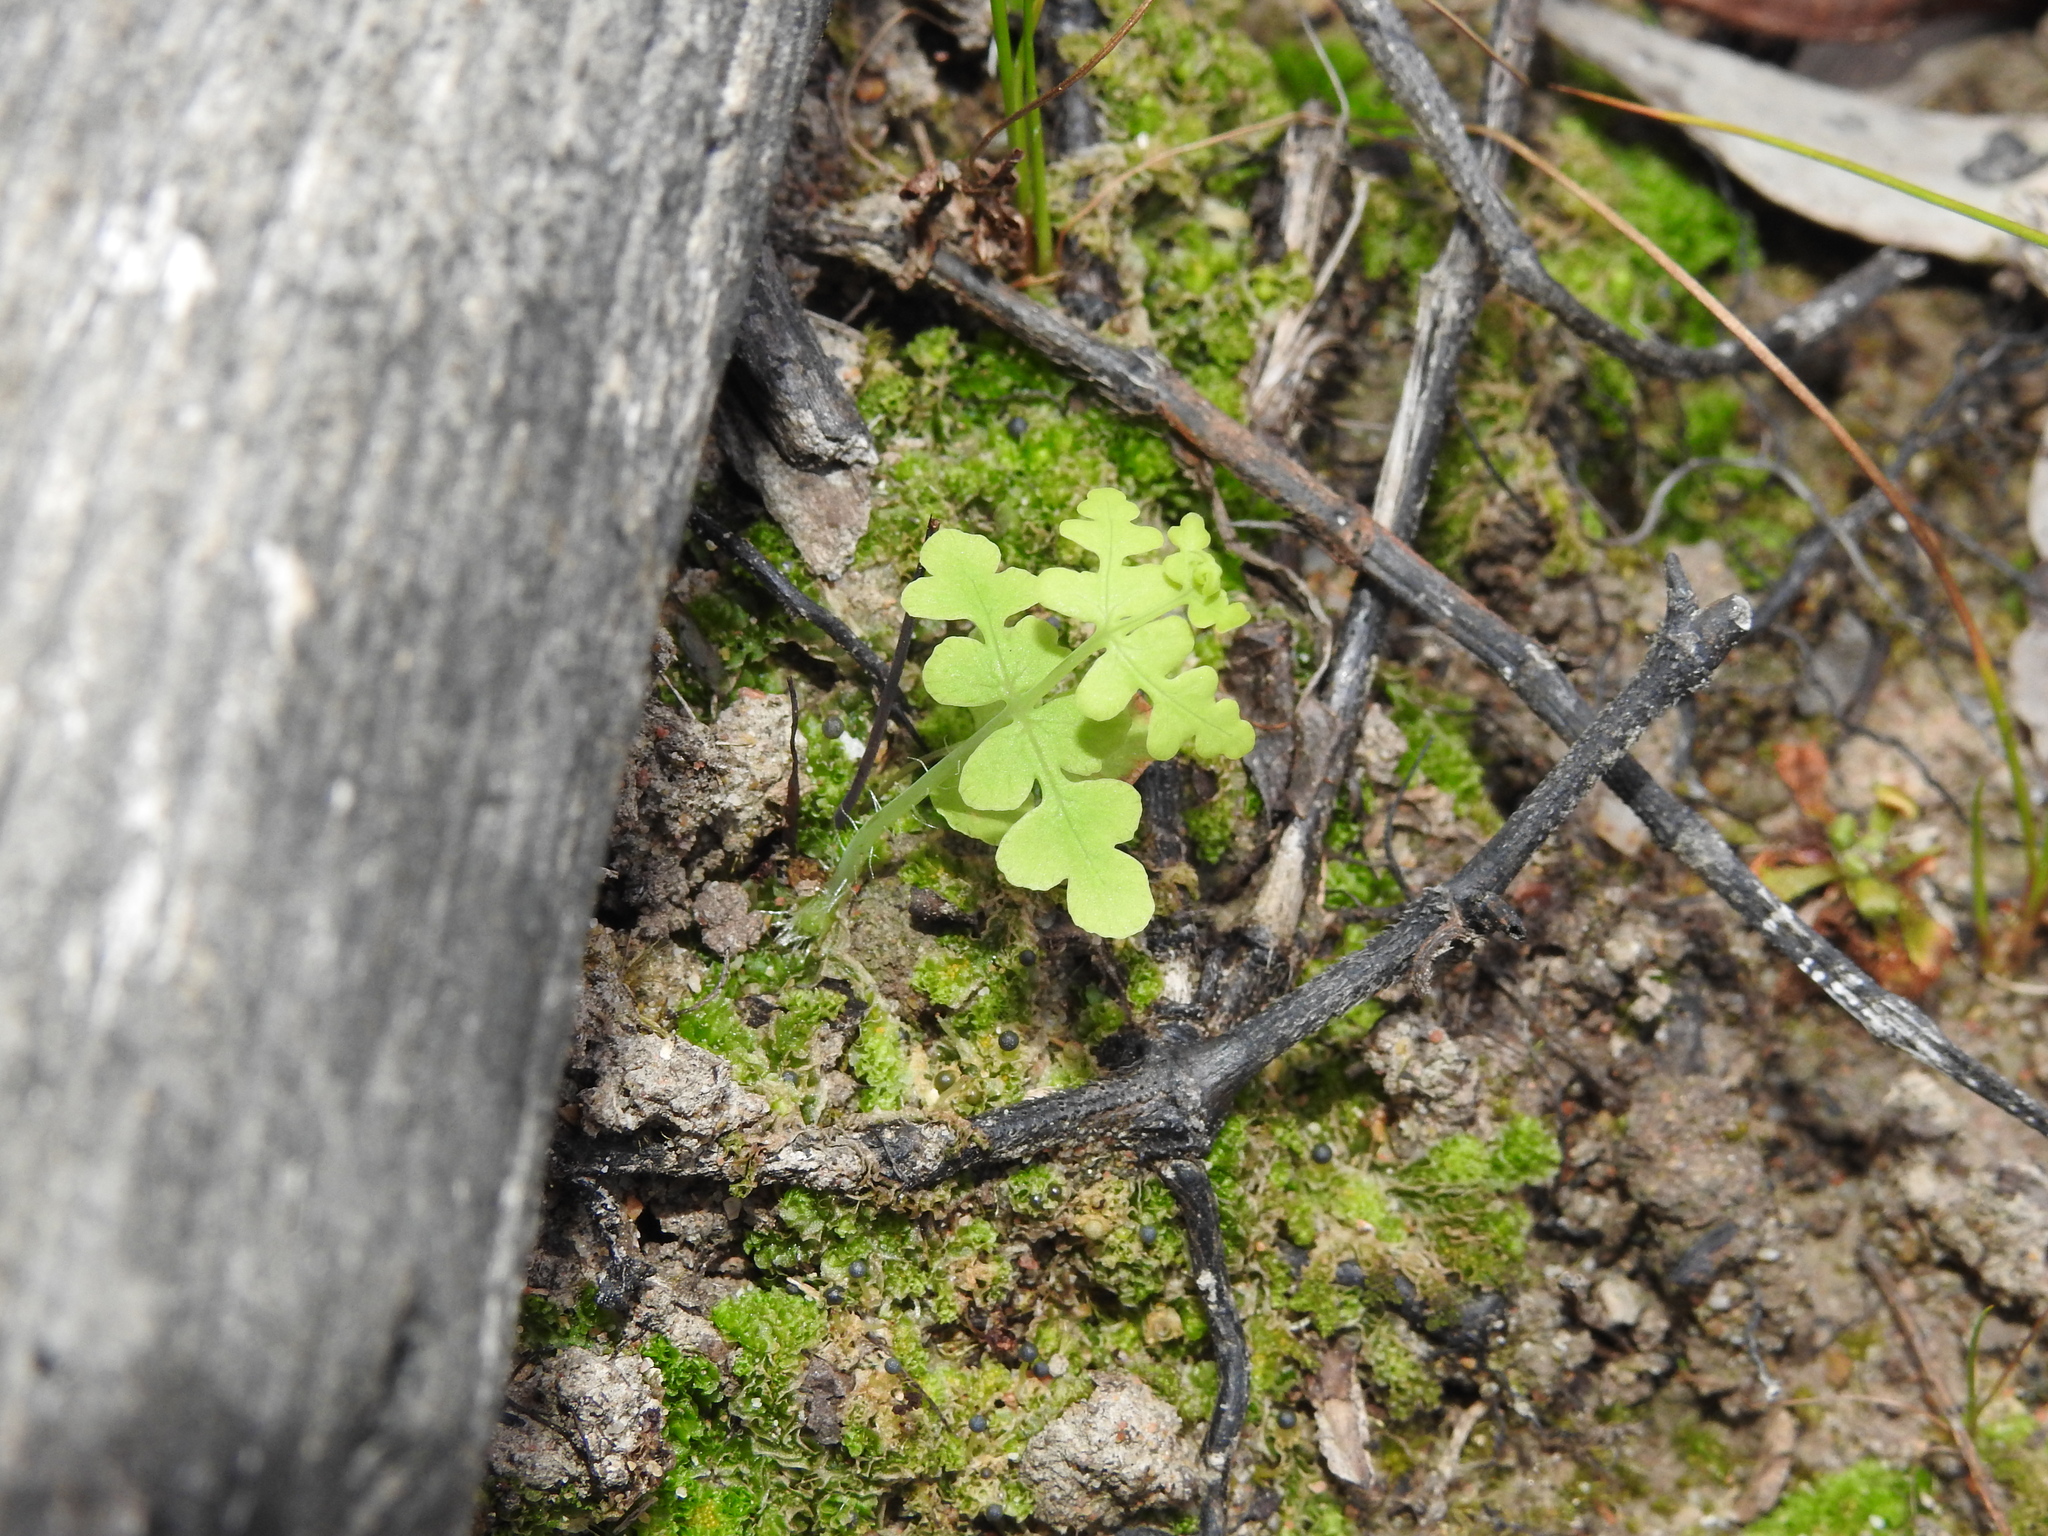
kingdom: Plantae
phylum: Tracheophyta
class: Polypodiopsida
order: Polypodiales
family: Dennstaedtiaceae
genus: Histiopteris
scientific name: Histiopteris incisa
